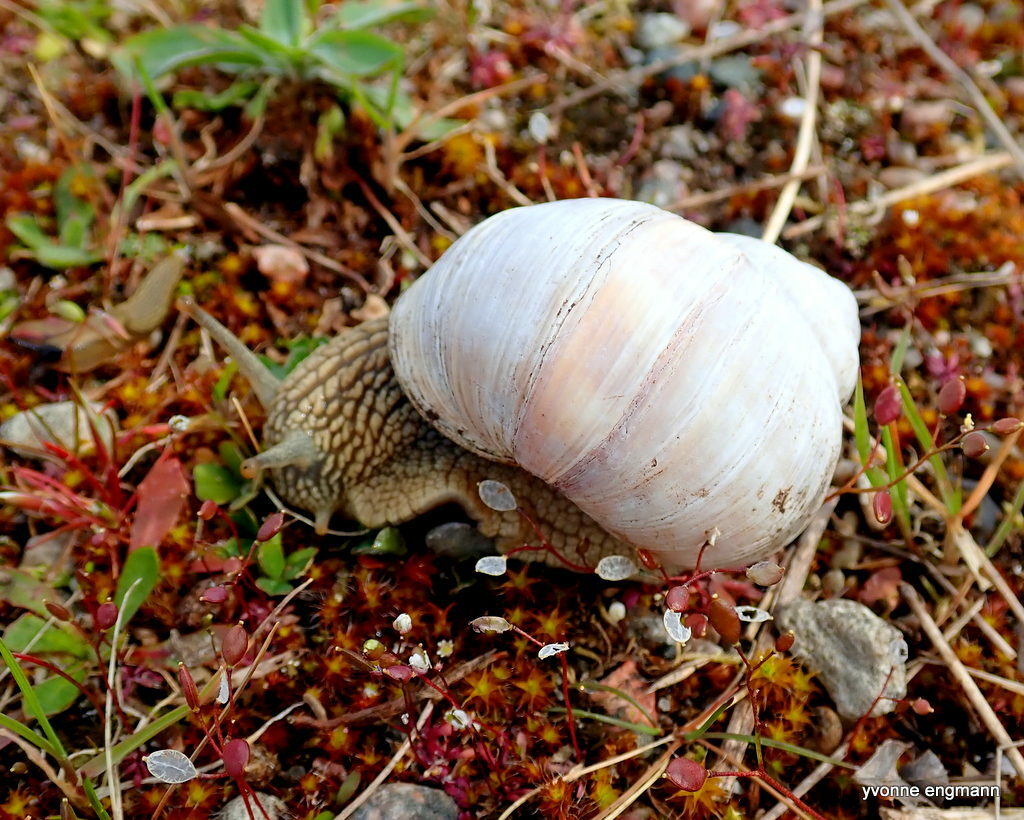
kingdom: Animalia
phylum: Mollusca
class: Gastropoda
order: Stylommatophora
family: Helicidae
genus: Helix
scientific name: Helix pomatia
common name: Roman snail
